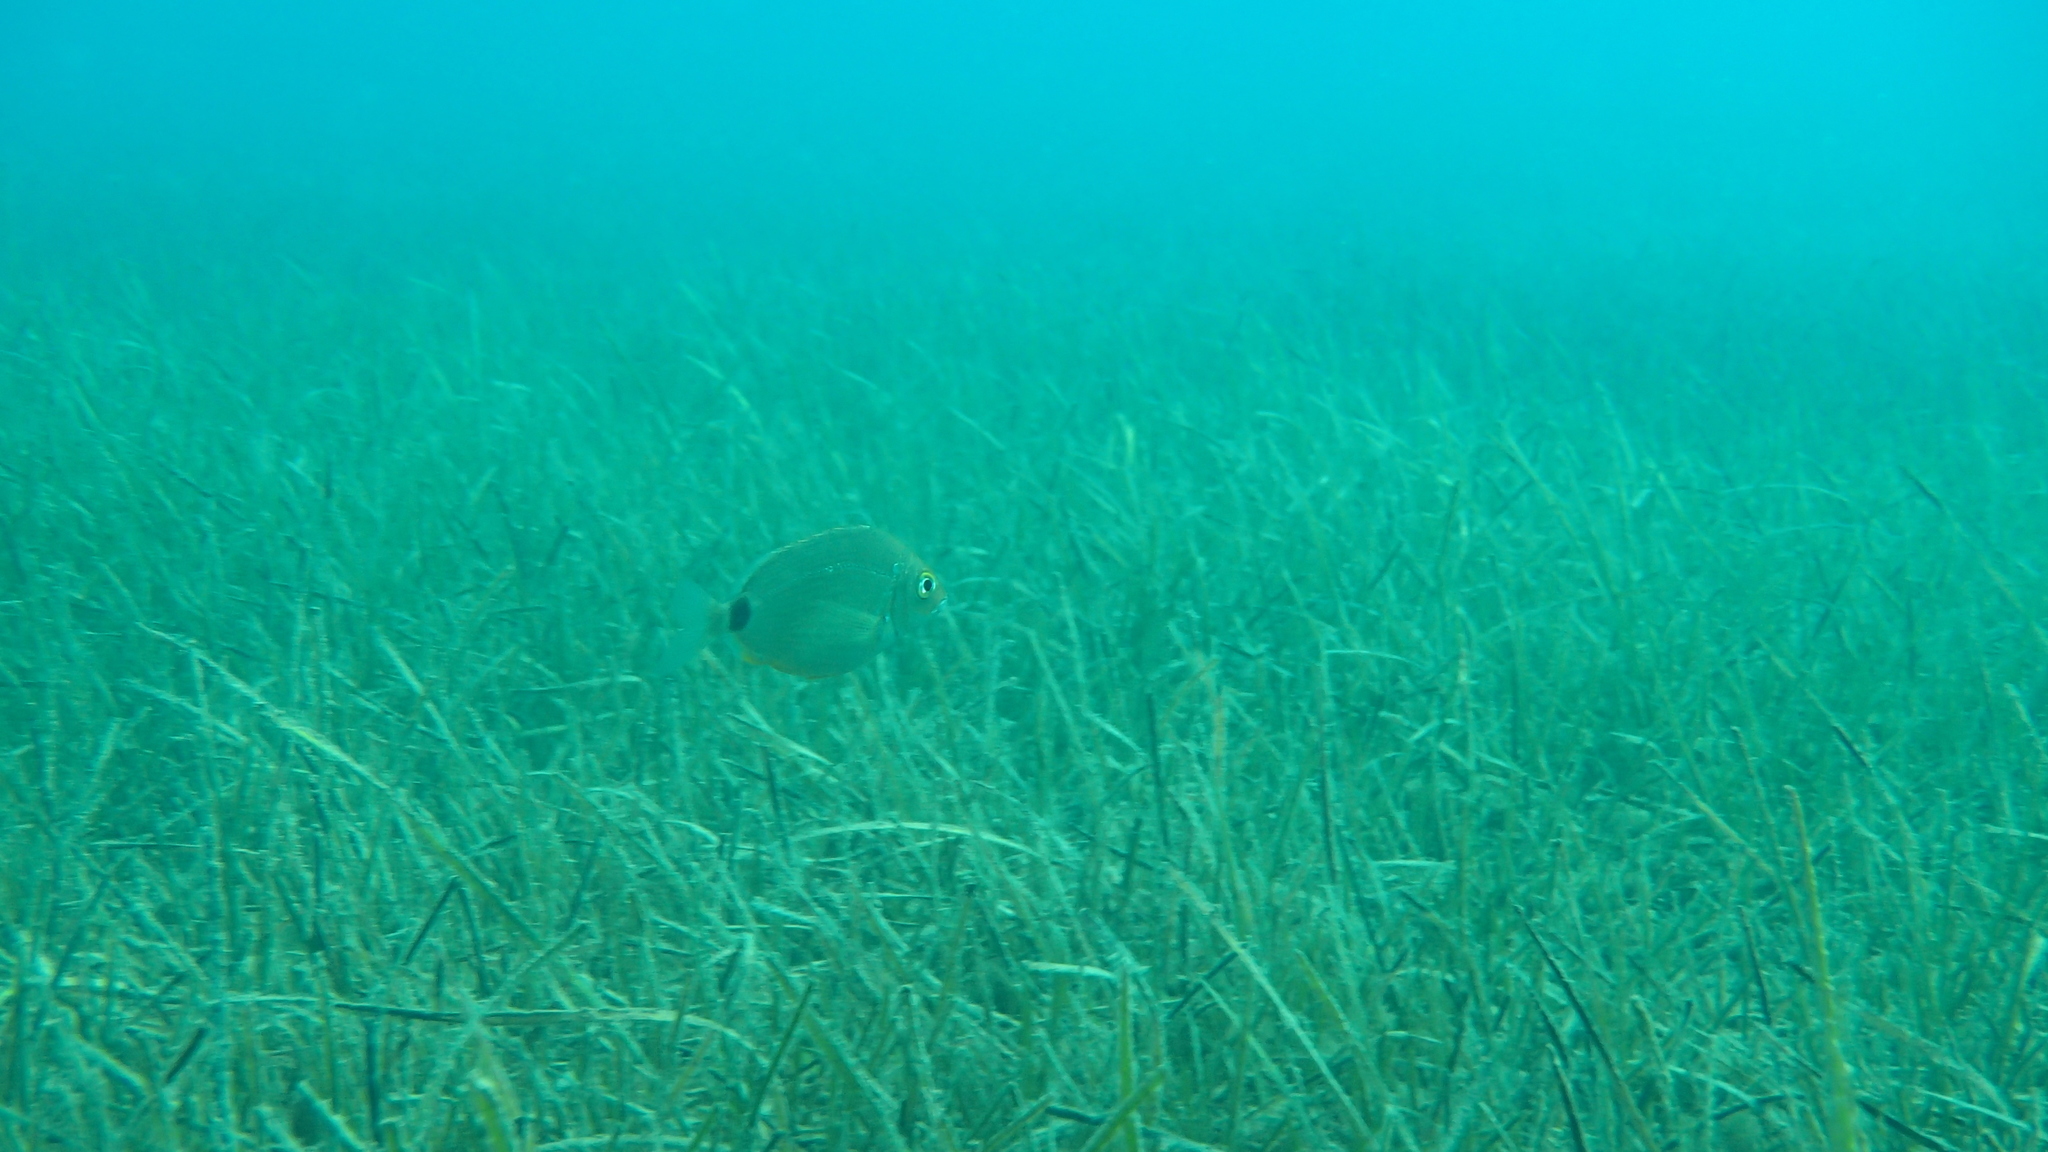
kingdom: Animalia
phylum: Chordata
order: Perciformes
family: Sparidae
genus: Diplodus
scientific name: Diplodus annularis
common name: Annular seabream
